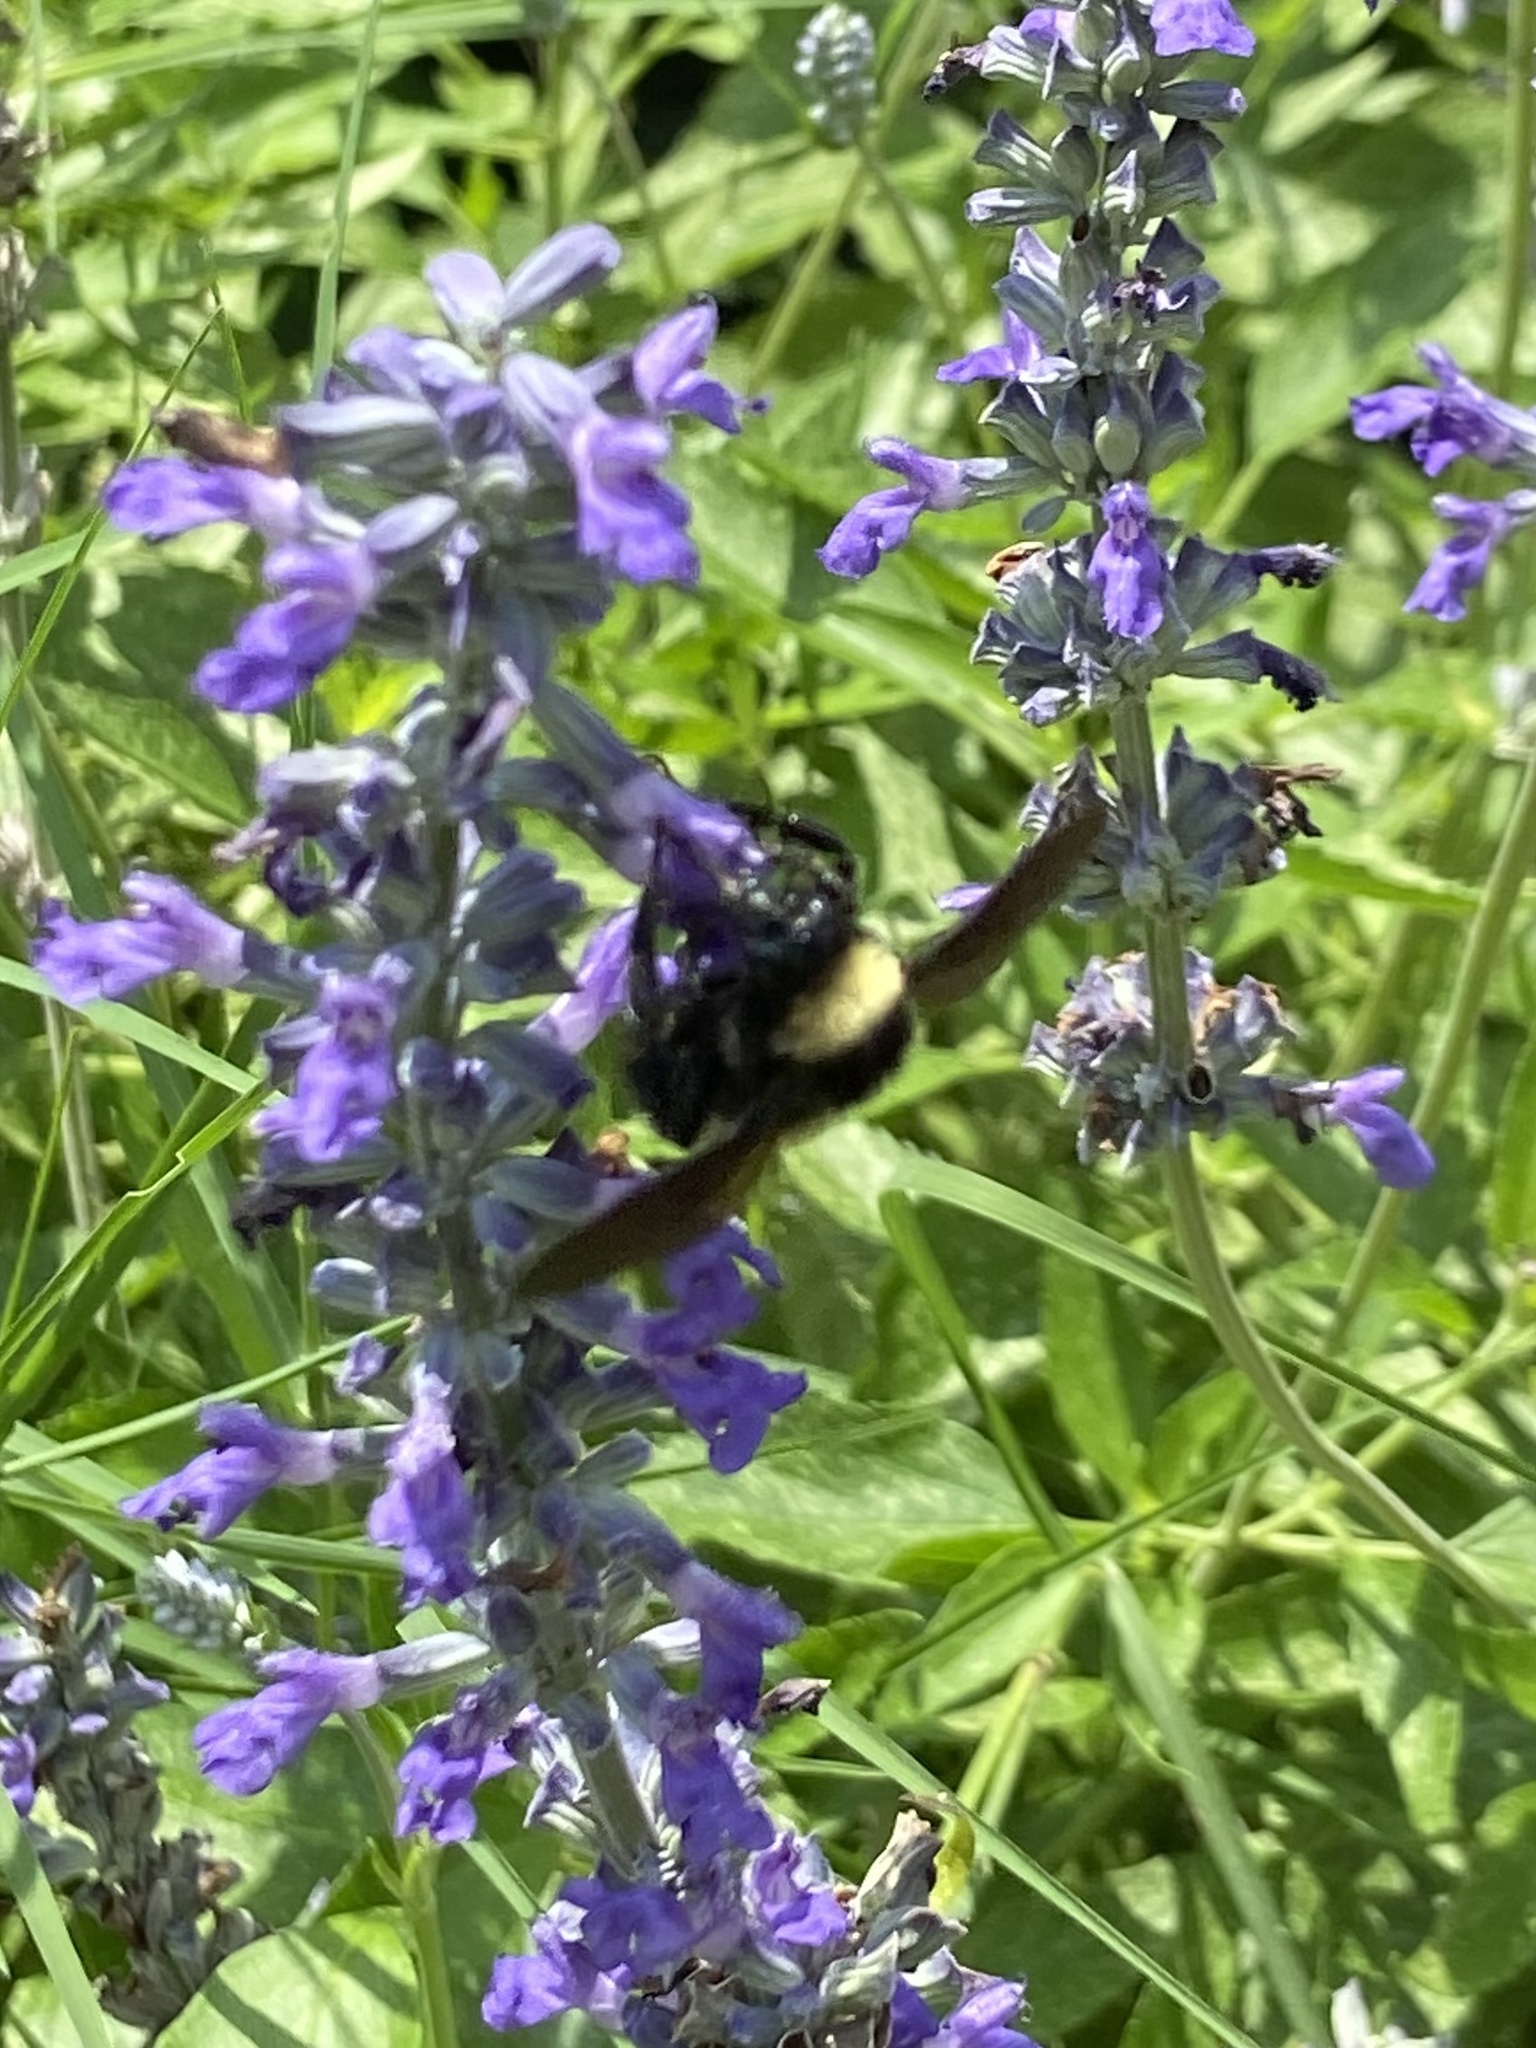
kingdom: Animalia
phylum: Arthropoda
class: Insecta
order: Hymenoptera
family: Apidae
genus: Bombus
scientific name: Bombus pensylvanicus
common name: Bumble bee
